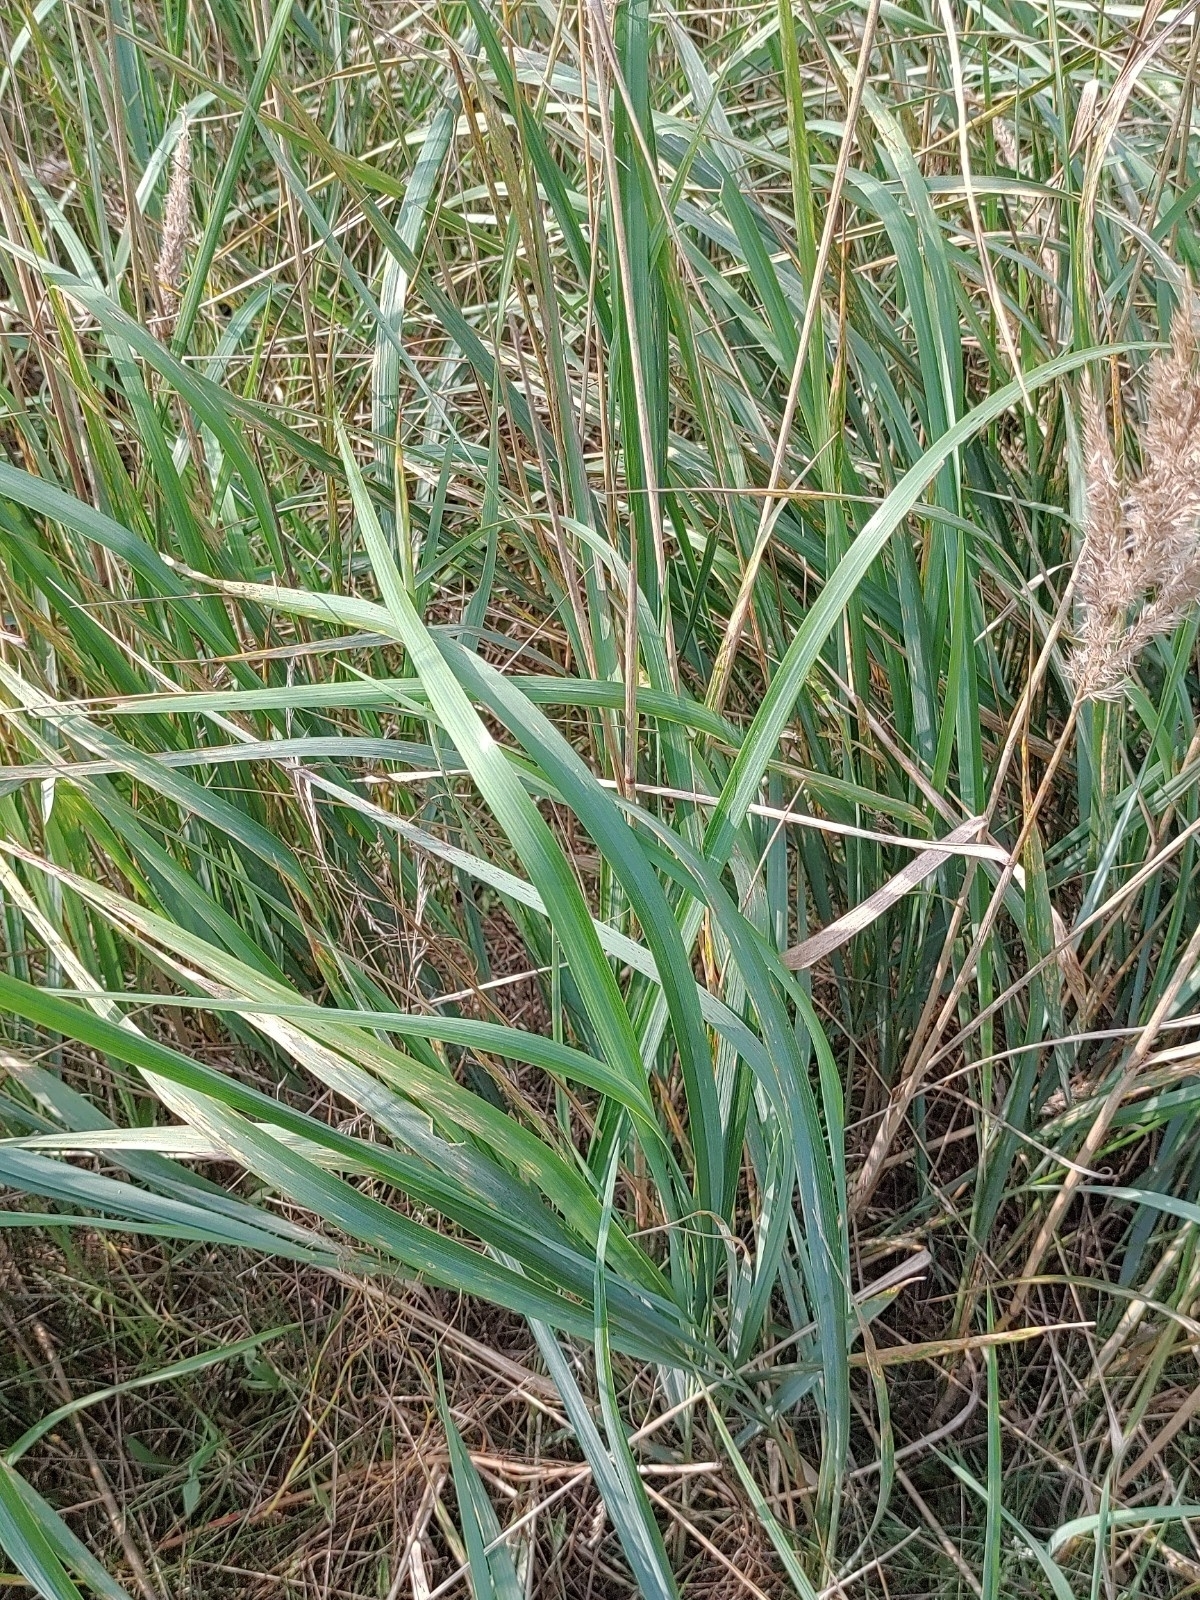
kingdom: Plantae
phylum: Tracheophyta
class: Liliopsida
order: Poales
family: Poaceae
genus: Calamagrostis
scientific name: Calamagrostis epigejos
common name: Wood small-reed
